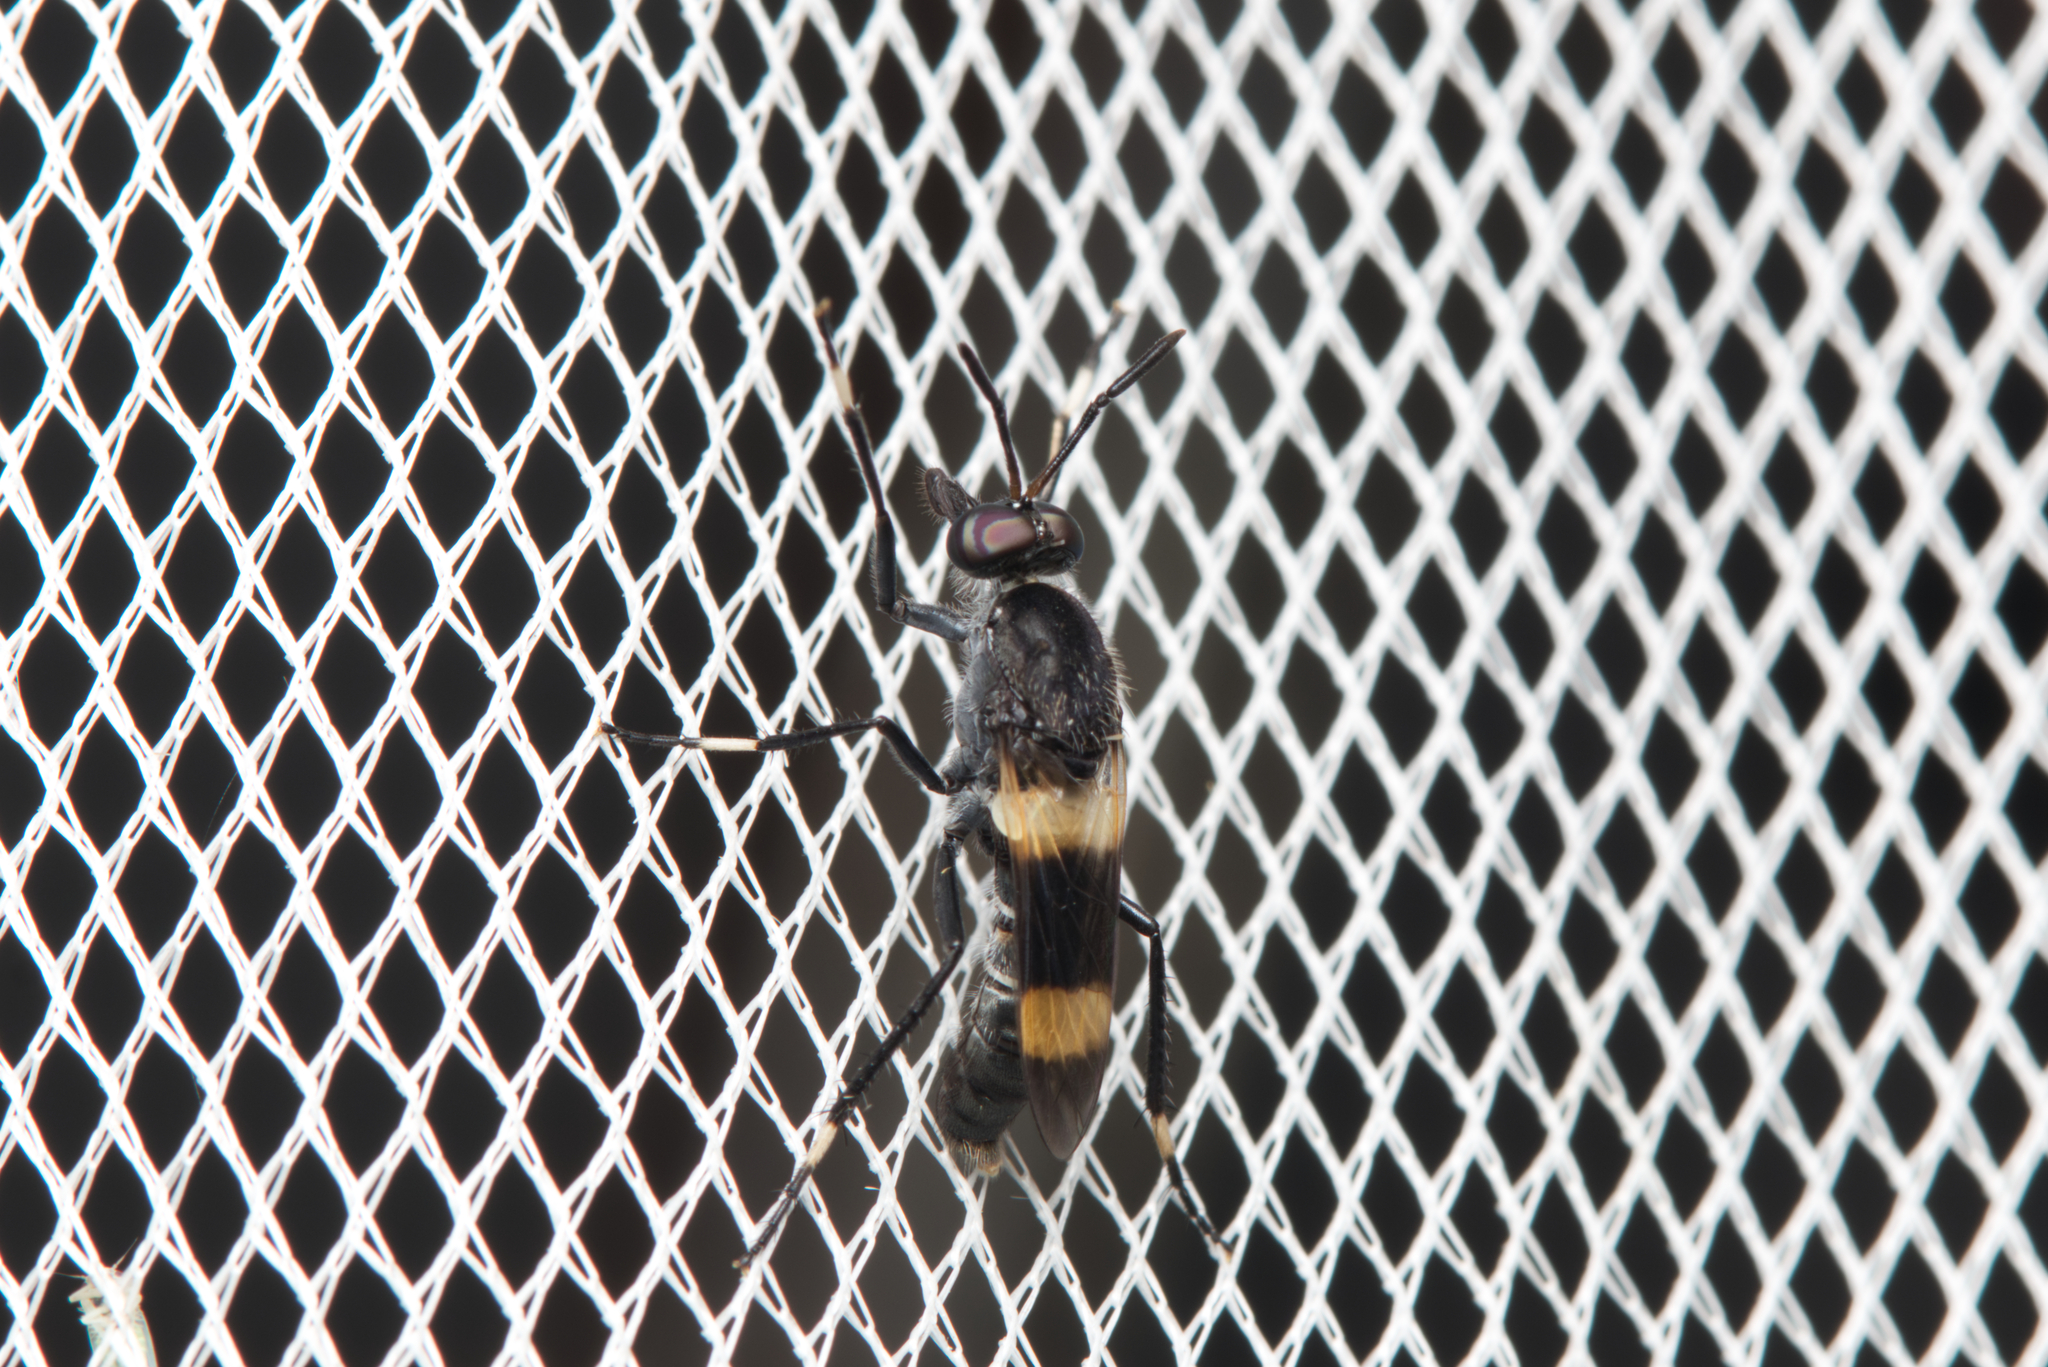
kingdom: Animalia
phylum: Arthropoda
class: Insecta
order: Diptera
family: Therevidae
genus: Agapophytus
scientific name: Agapophytus albobasalis
